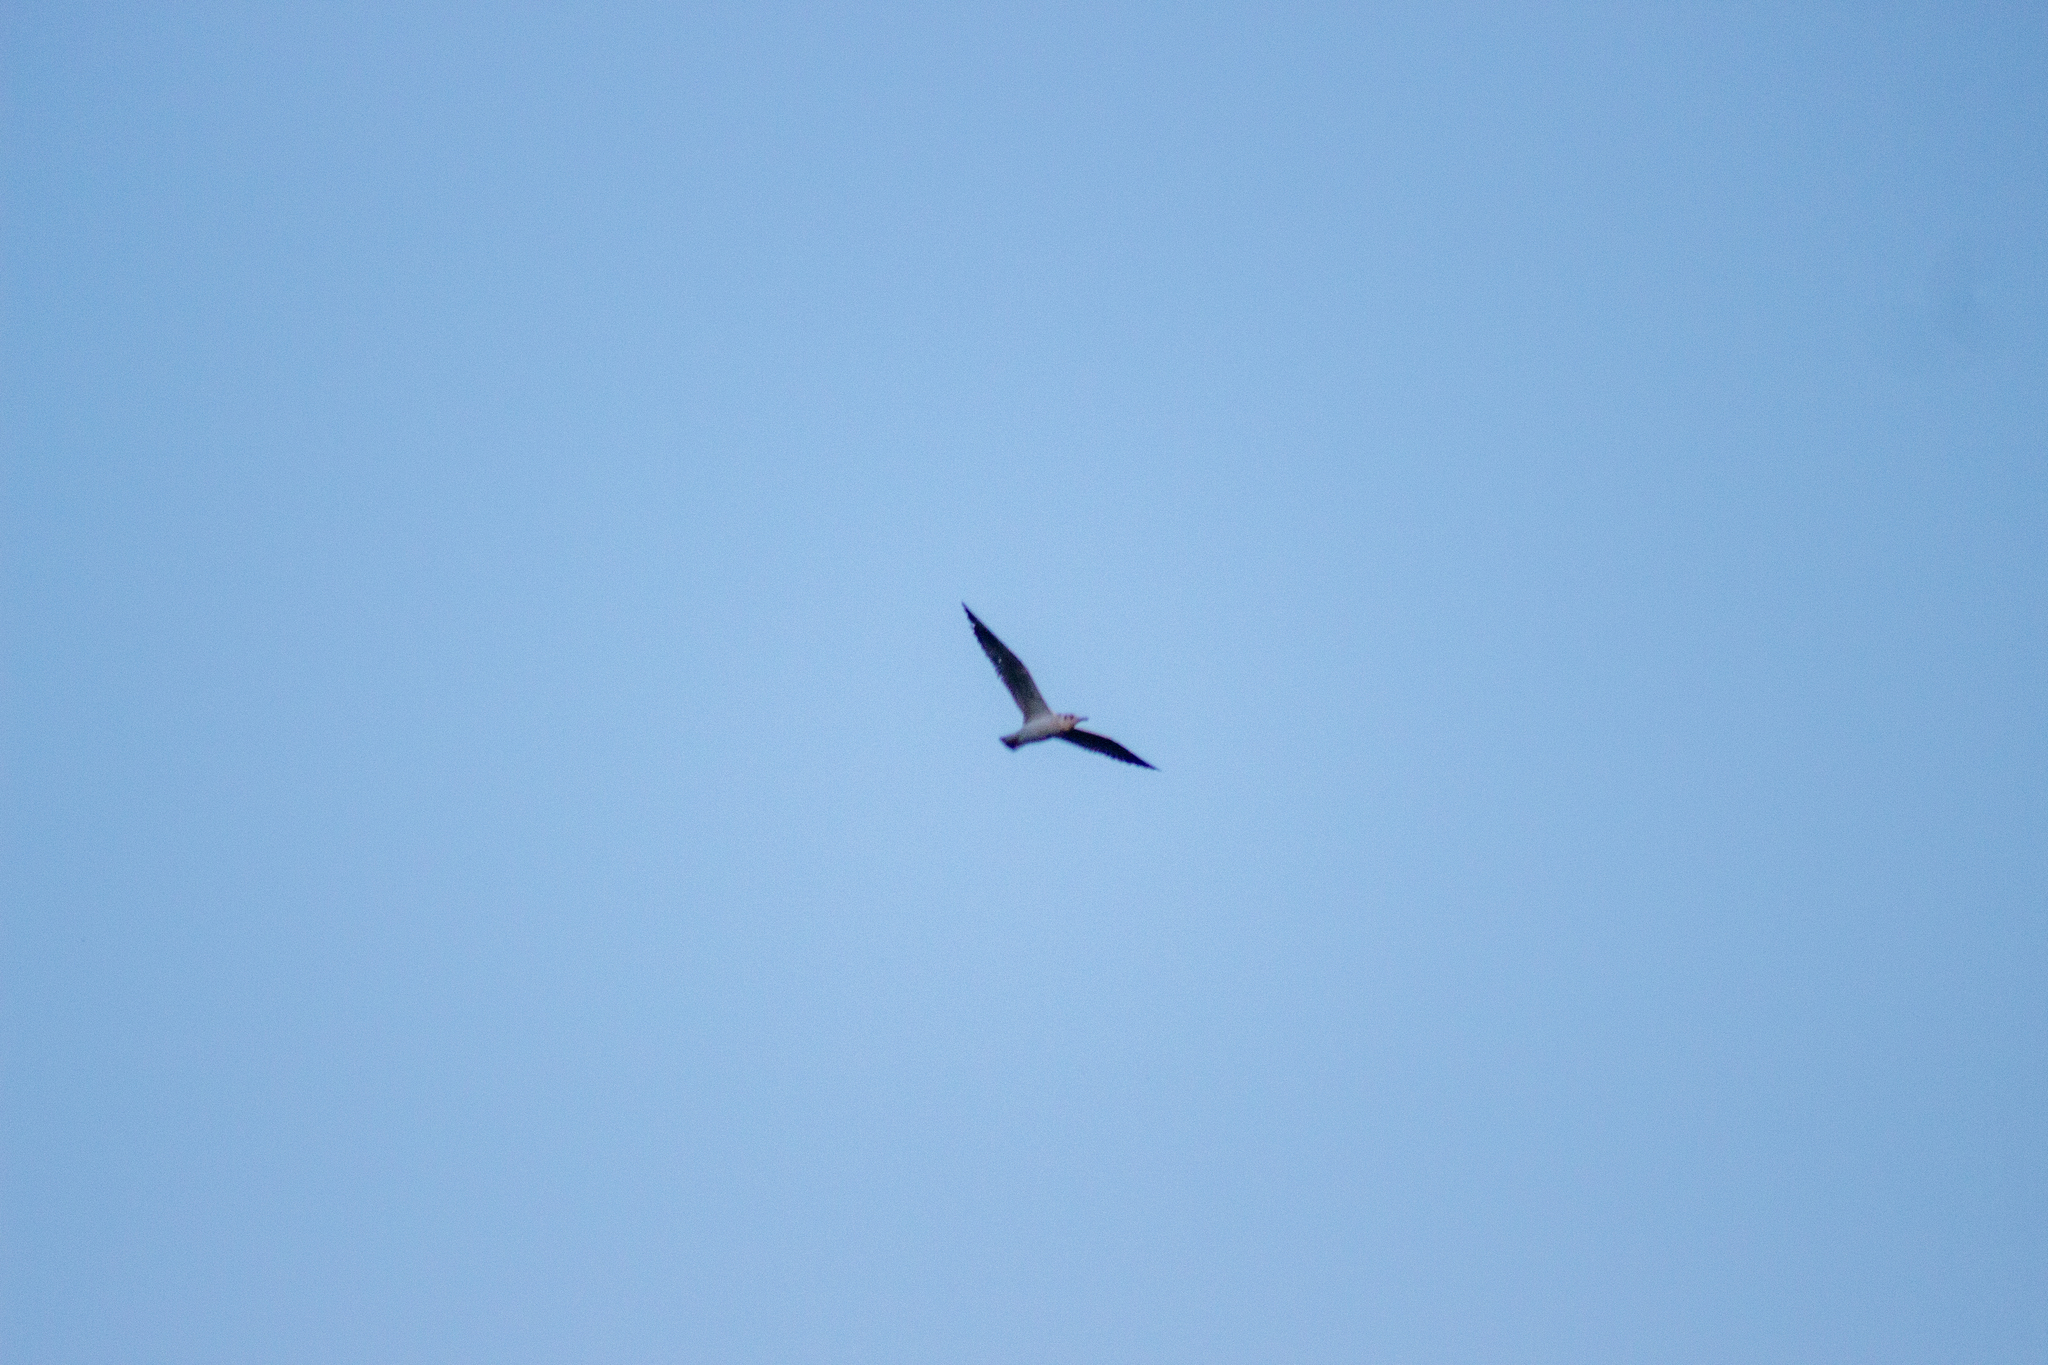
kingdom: Animalia
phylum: Chordata
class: Aves
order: Charadriiformes
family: Laridae
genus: Chroicocephalus
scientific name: Chroicocephalus ridibundus
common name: Black-headed gull
